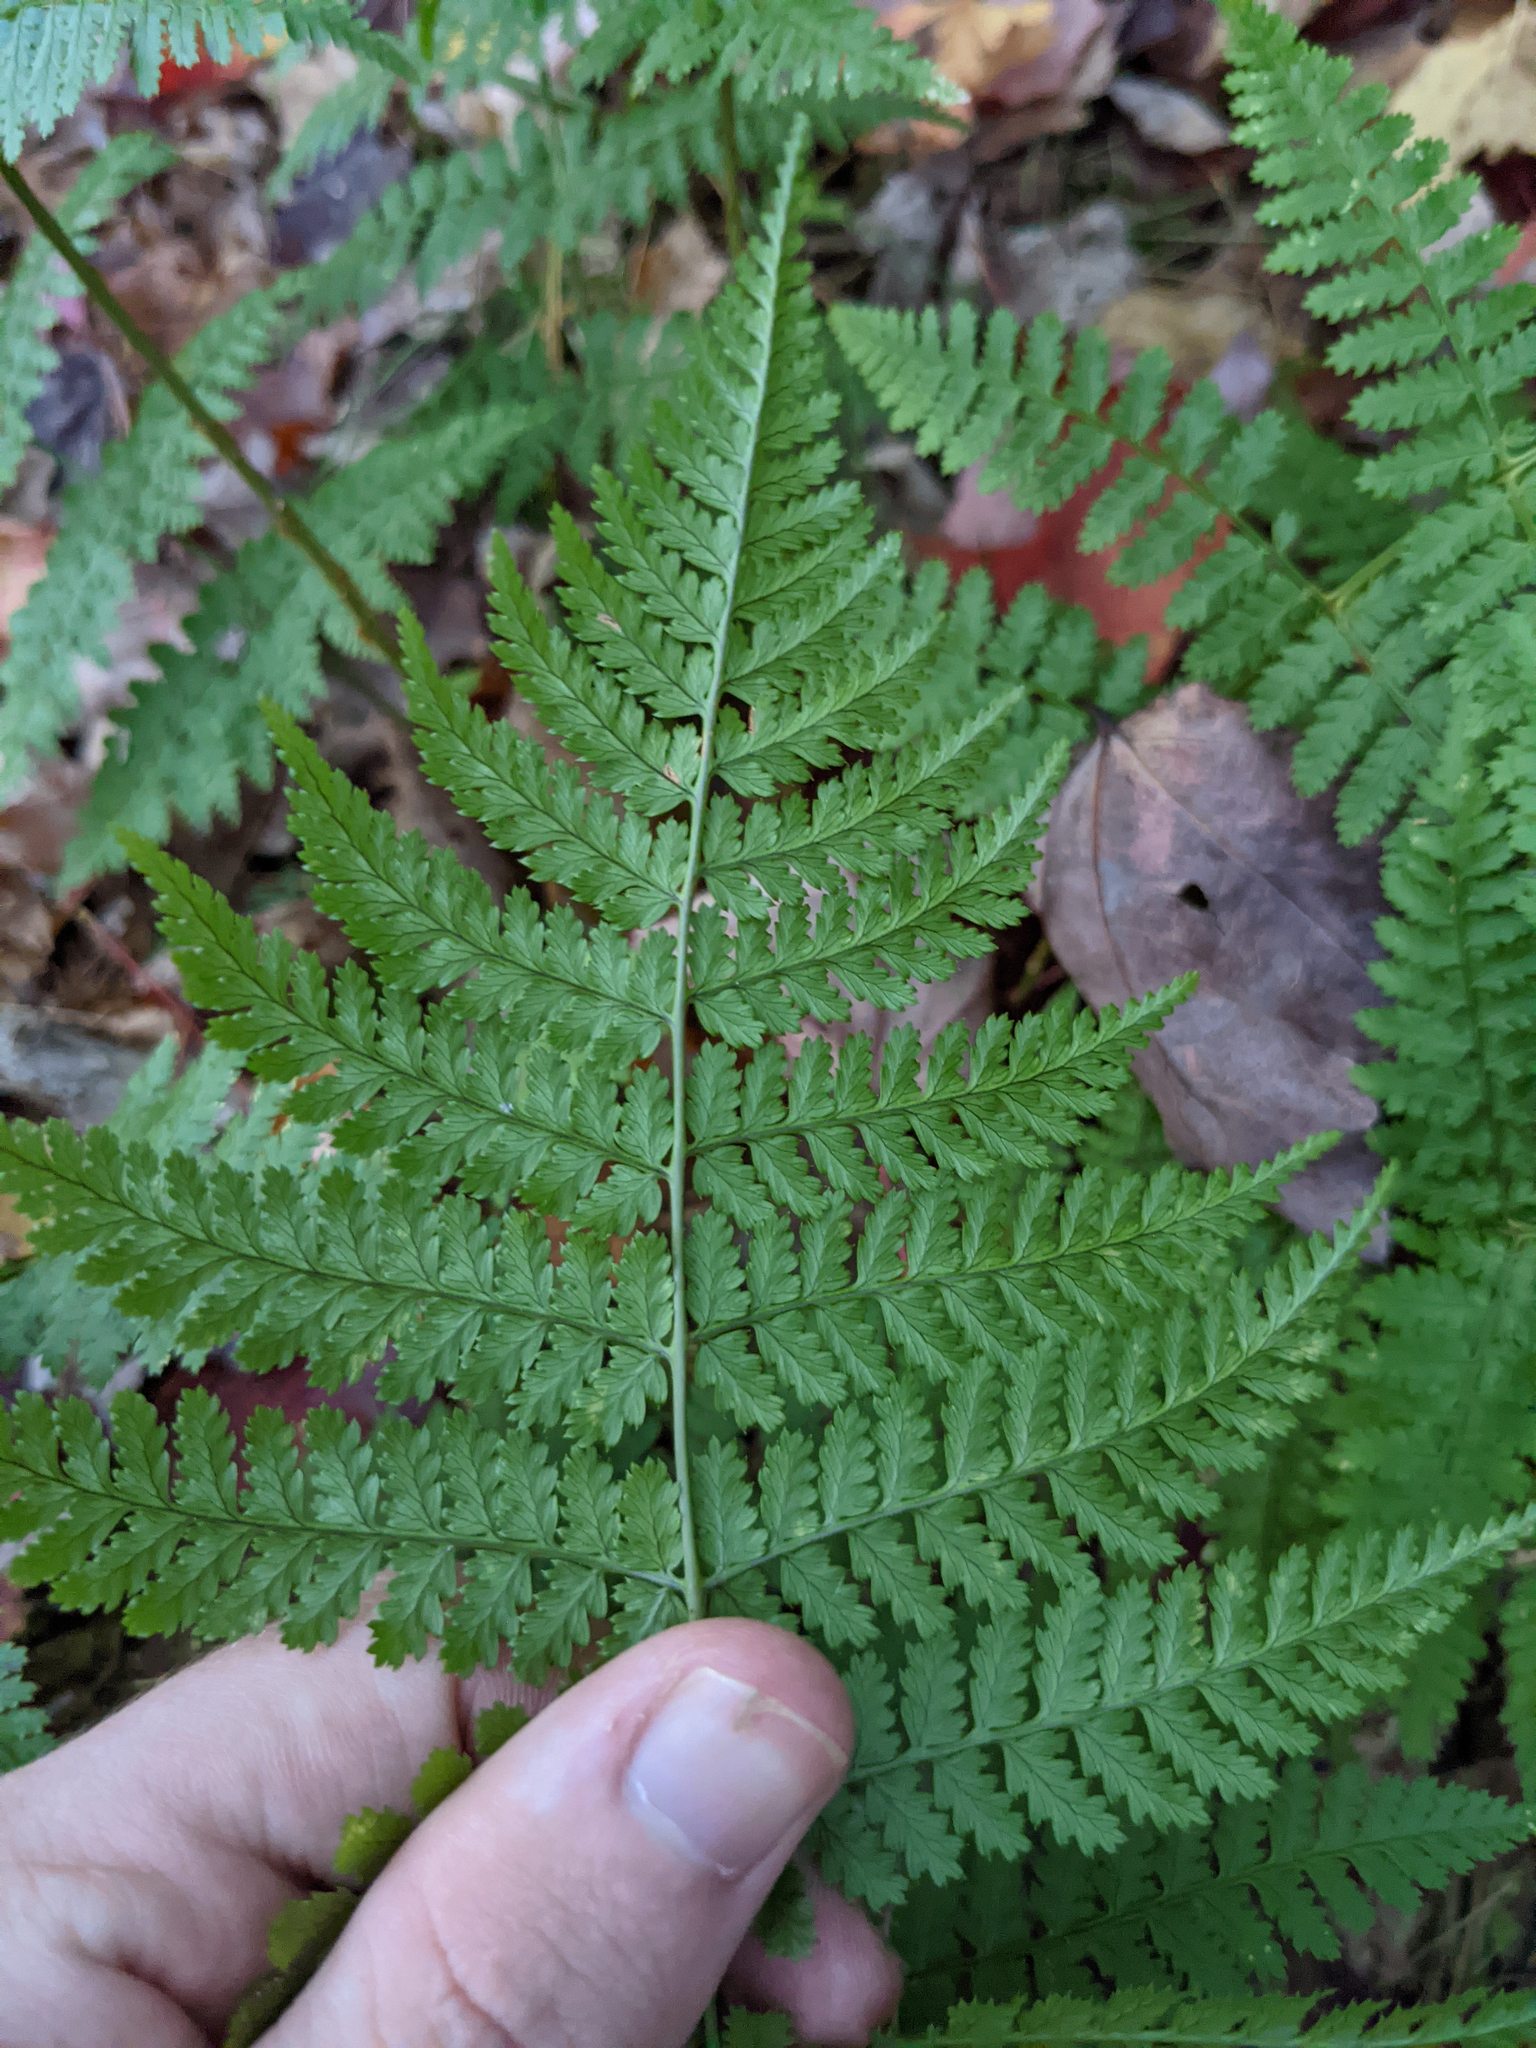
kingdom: Plantae
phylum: Tracheophyta
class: Polypodiopsida
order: Polypodiales
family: Dryopteridaceae
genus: Dryopteris
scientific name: Dryopteris intermedia
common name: Evergreen wood fern
